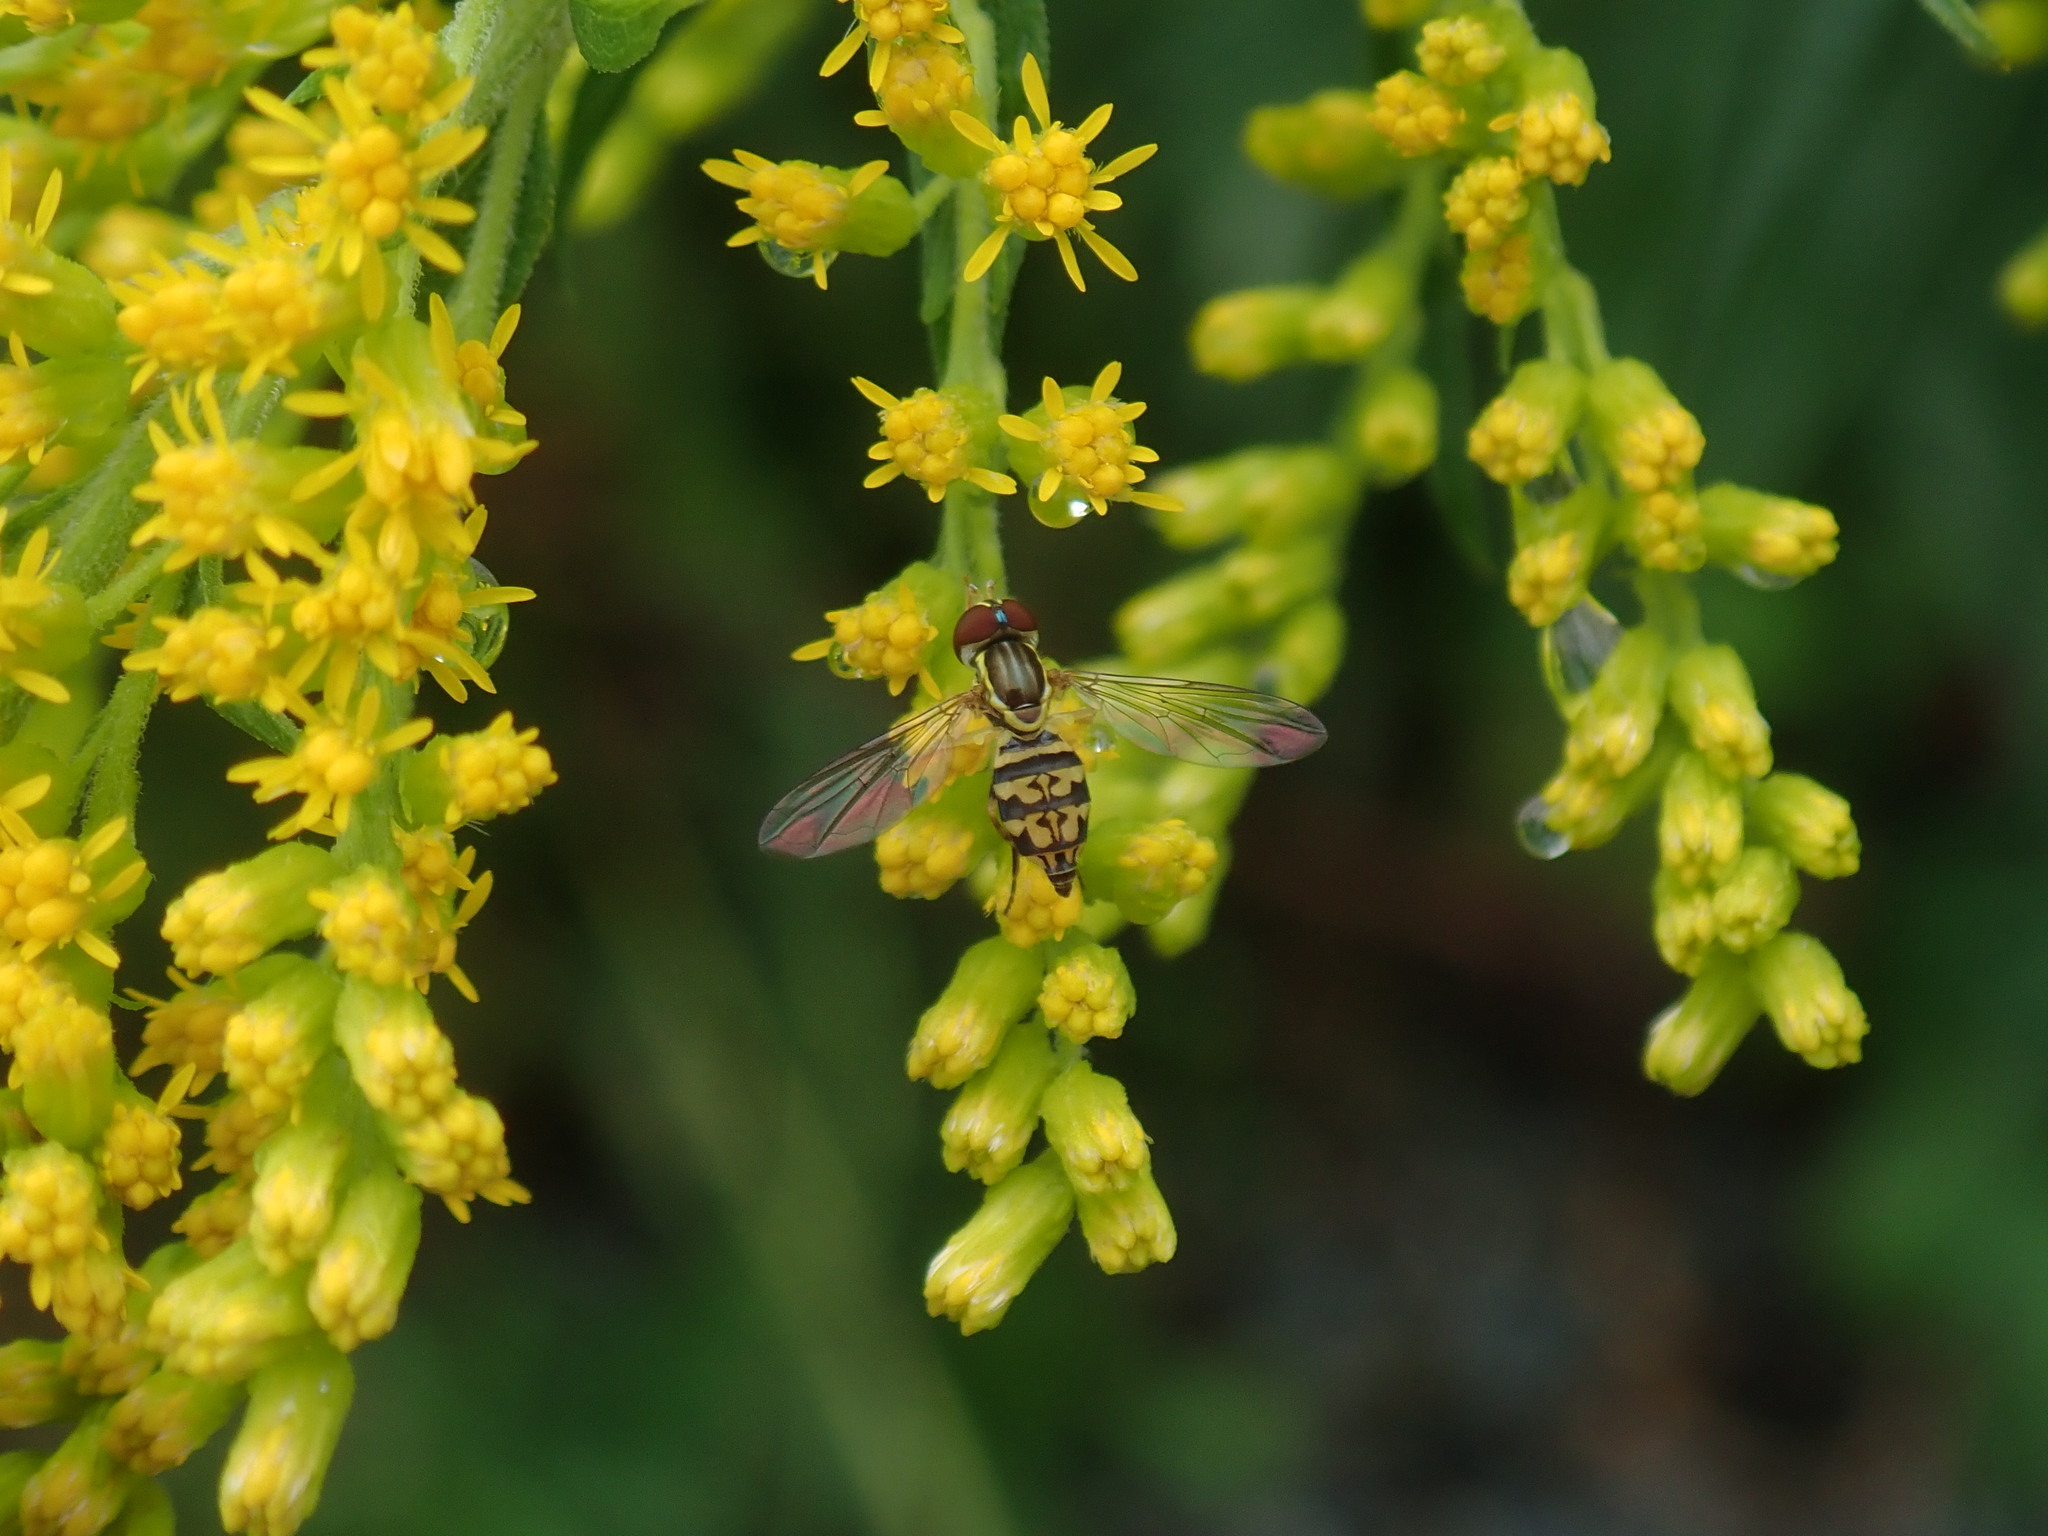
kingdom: Animalia
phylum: Arthropoda
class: Insecta
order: Diptera
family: Syrphidae
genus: Toxomerus
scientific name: Toxomerus geminatus
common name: Eastern calligrapher
